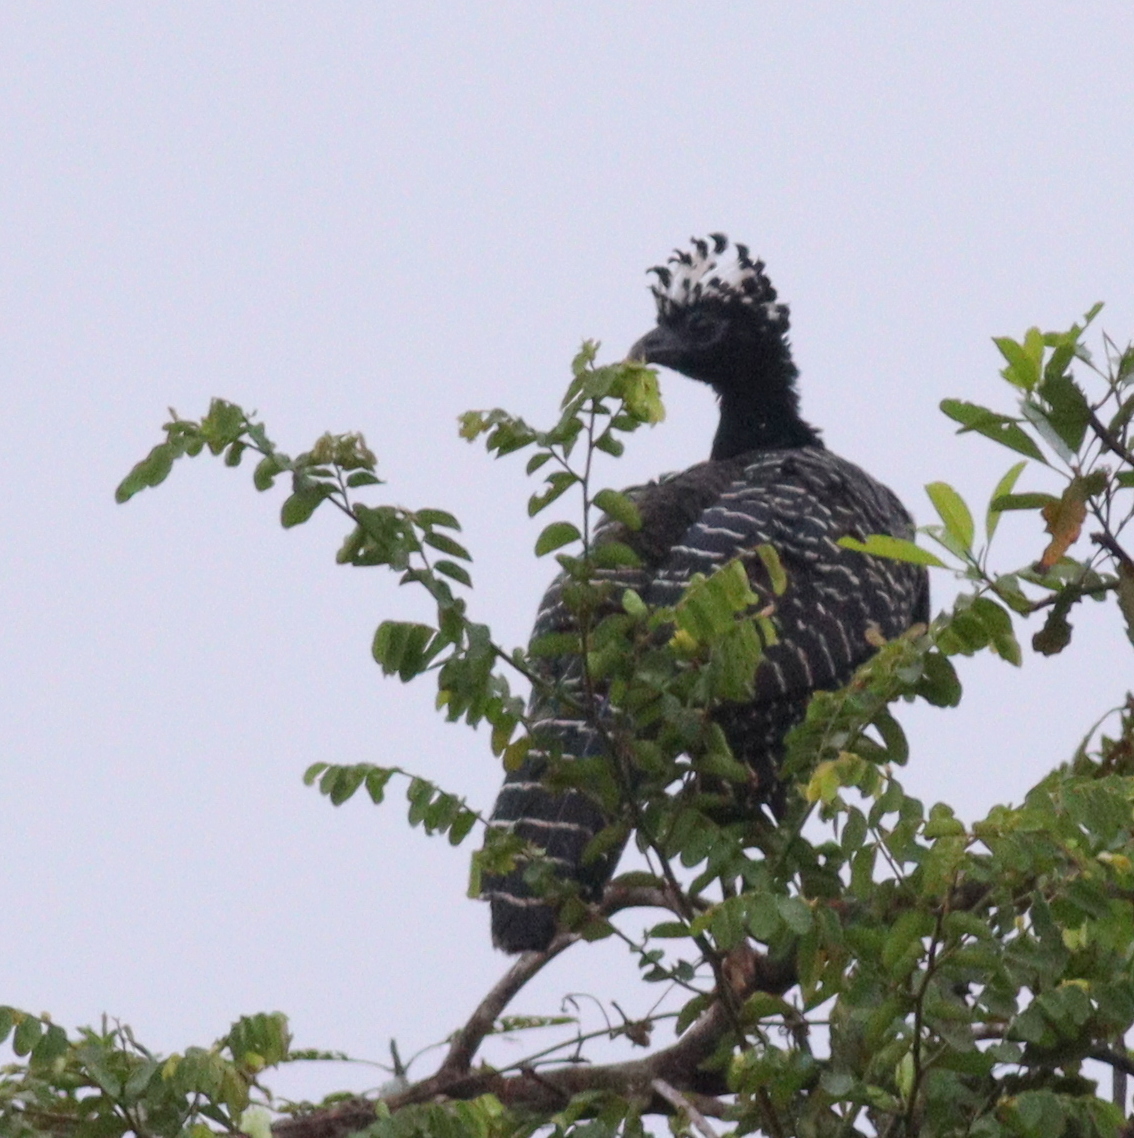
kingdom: Animalia
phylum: Chordata
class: Aves
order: Galliformes
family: Cracidae
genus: Crax
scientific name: Crax fasciolata
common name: Bare-faced curassow
